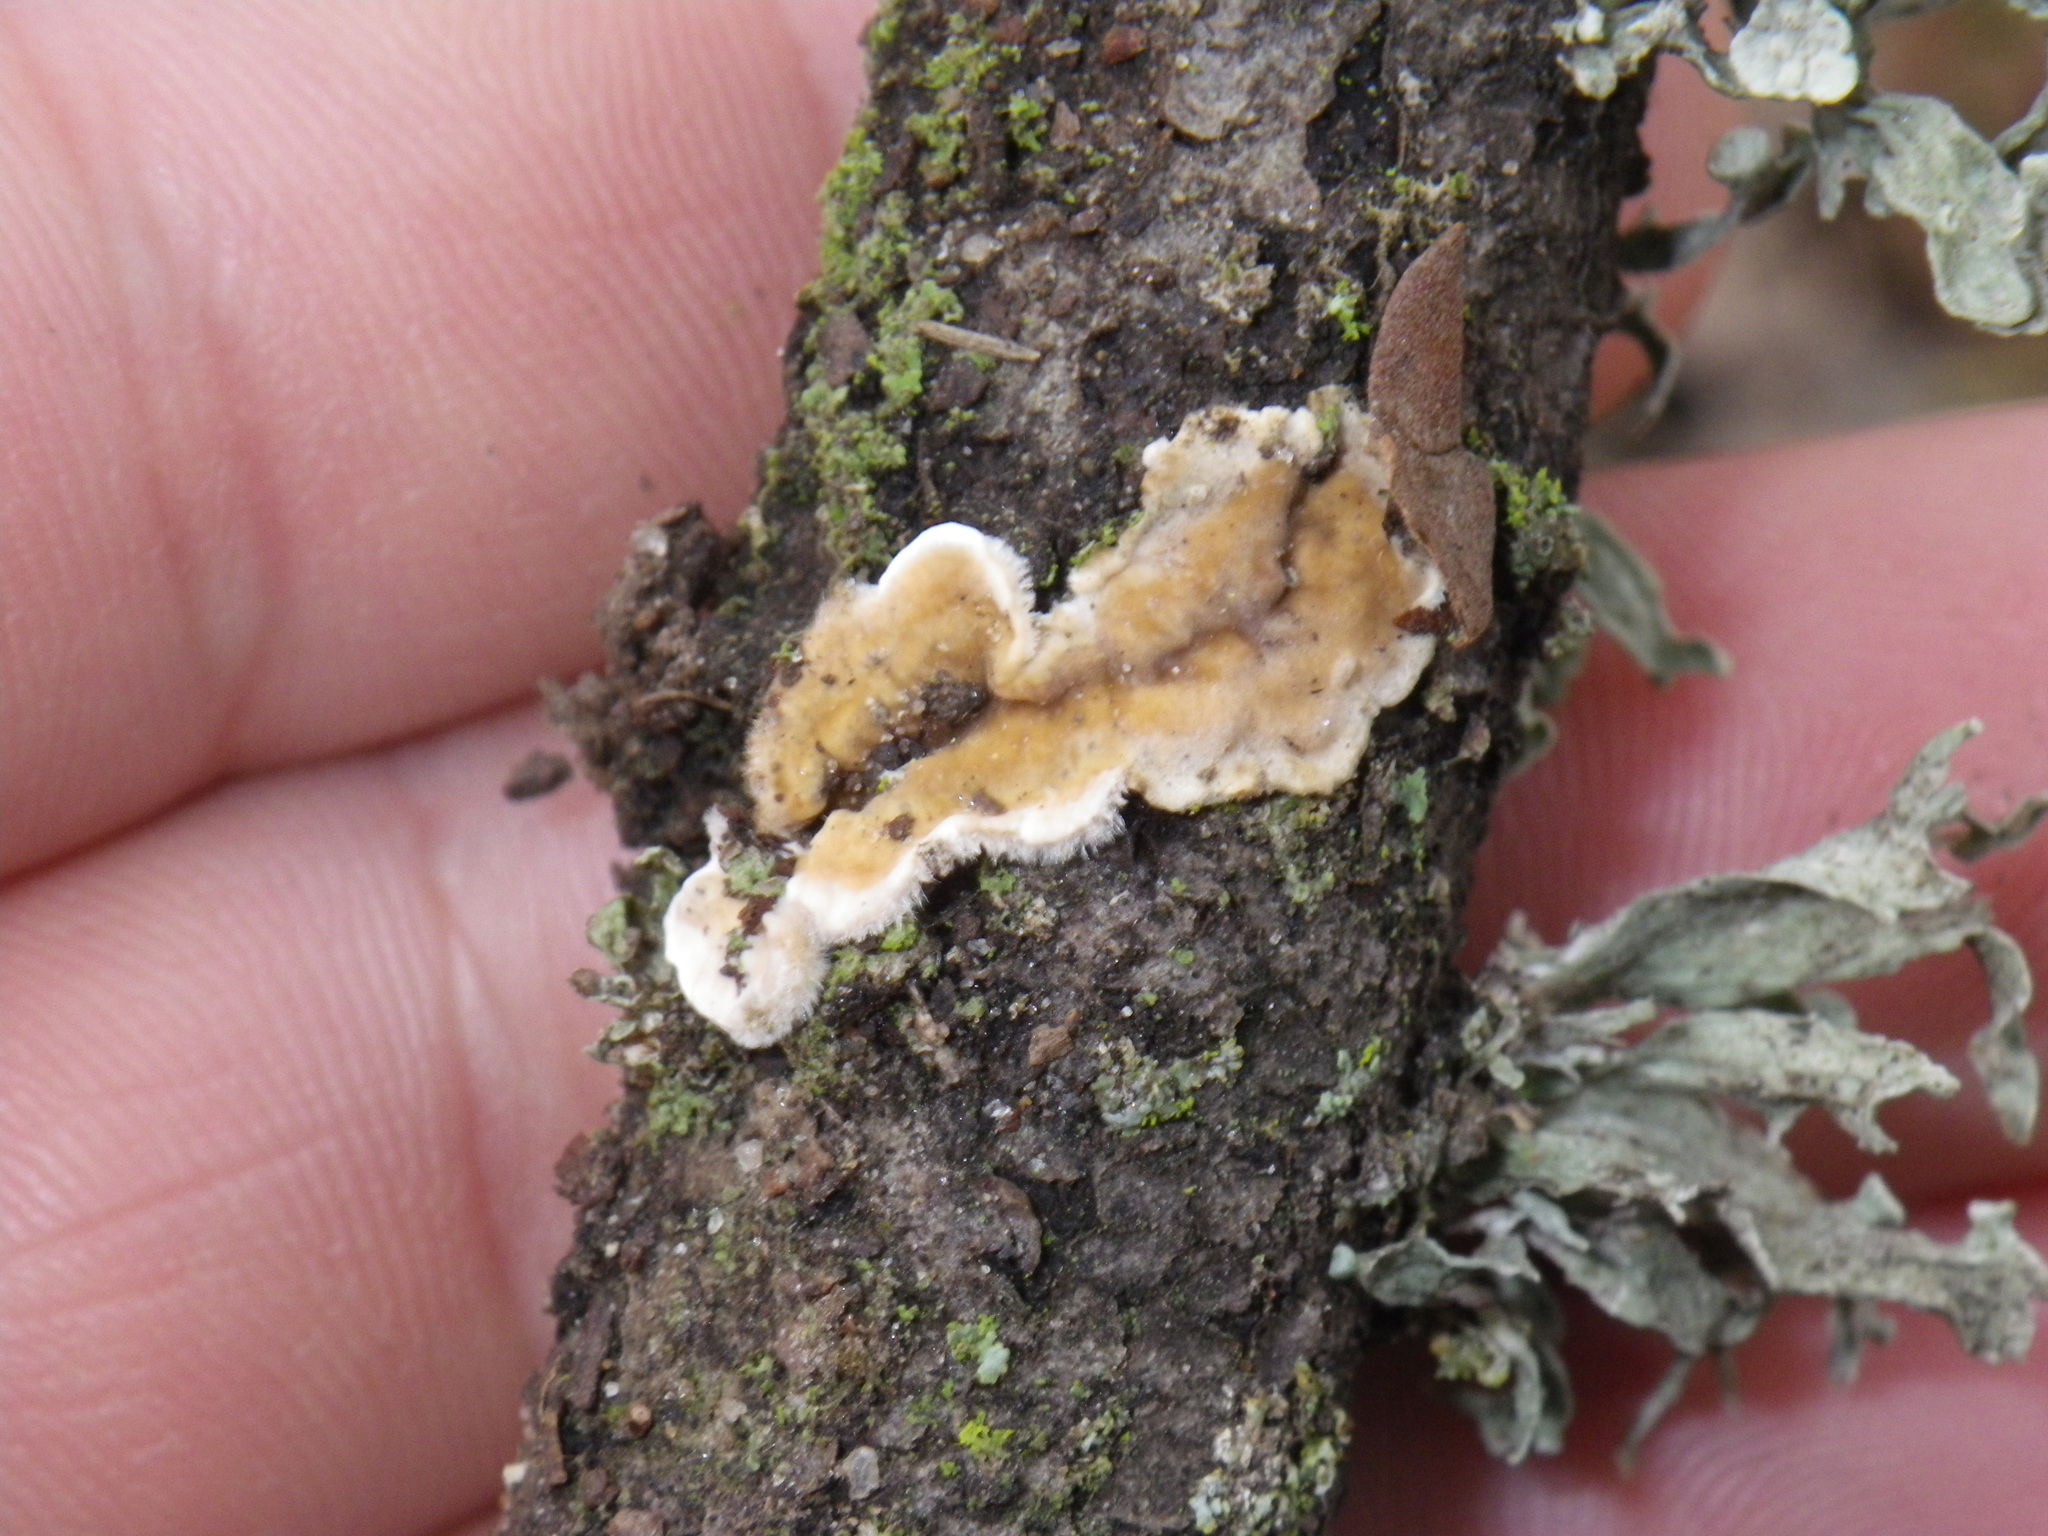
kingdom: Fungi
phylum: Basidiomycota
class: Agaricomycetes
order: Russulales
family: Stereaceae
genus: Stereum
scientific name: Stereum ochraceoflavum
